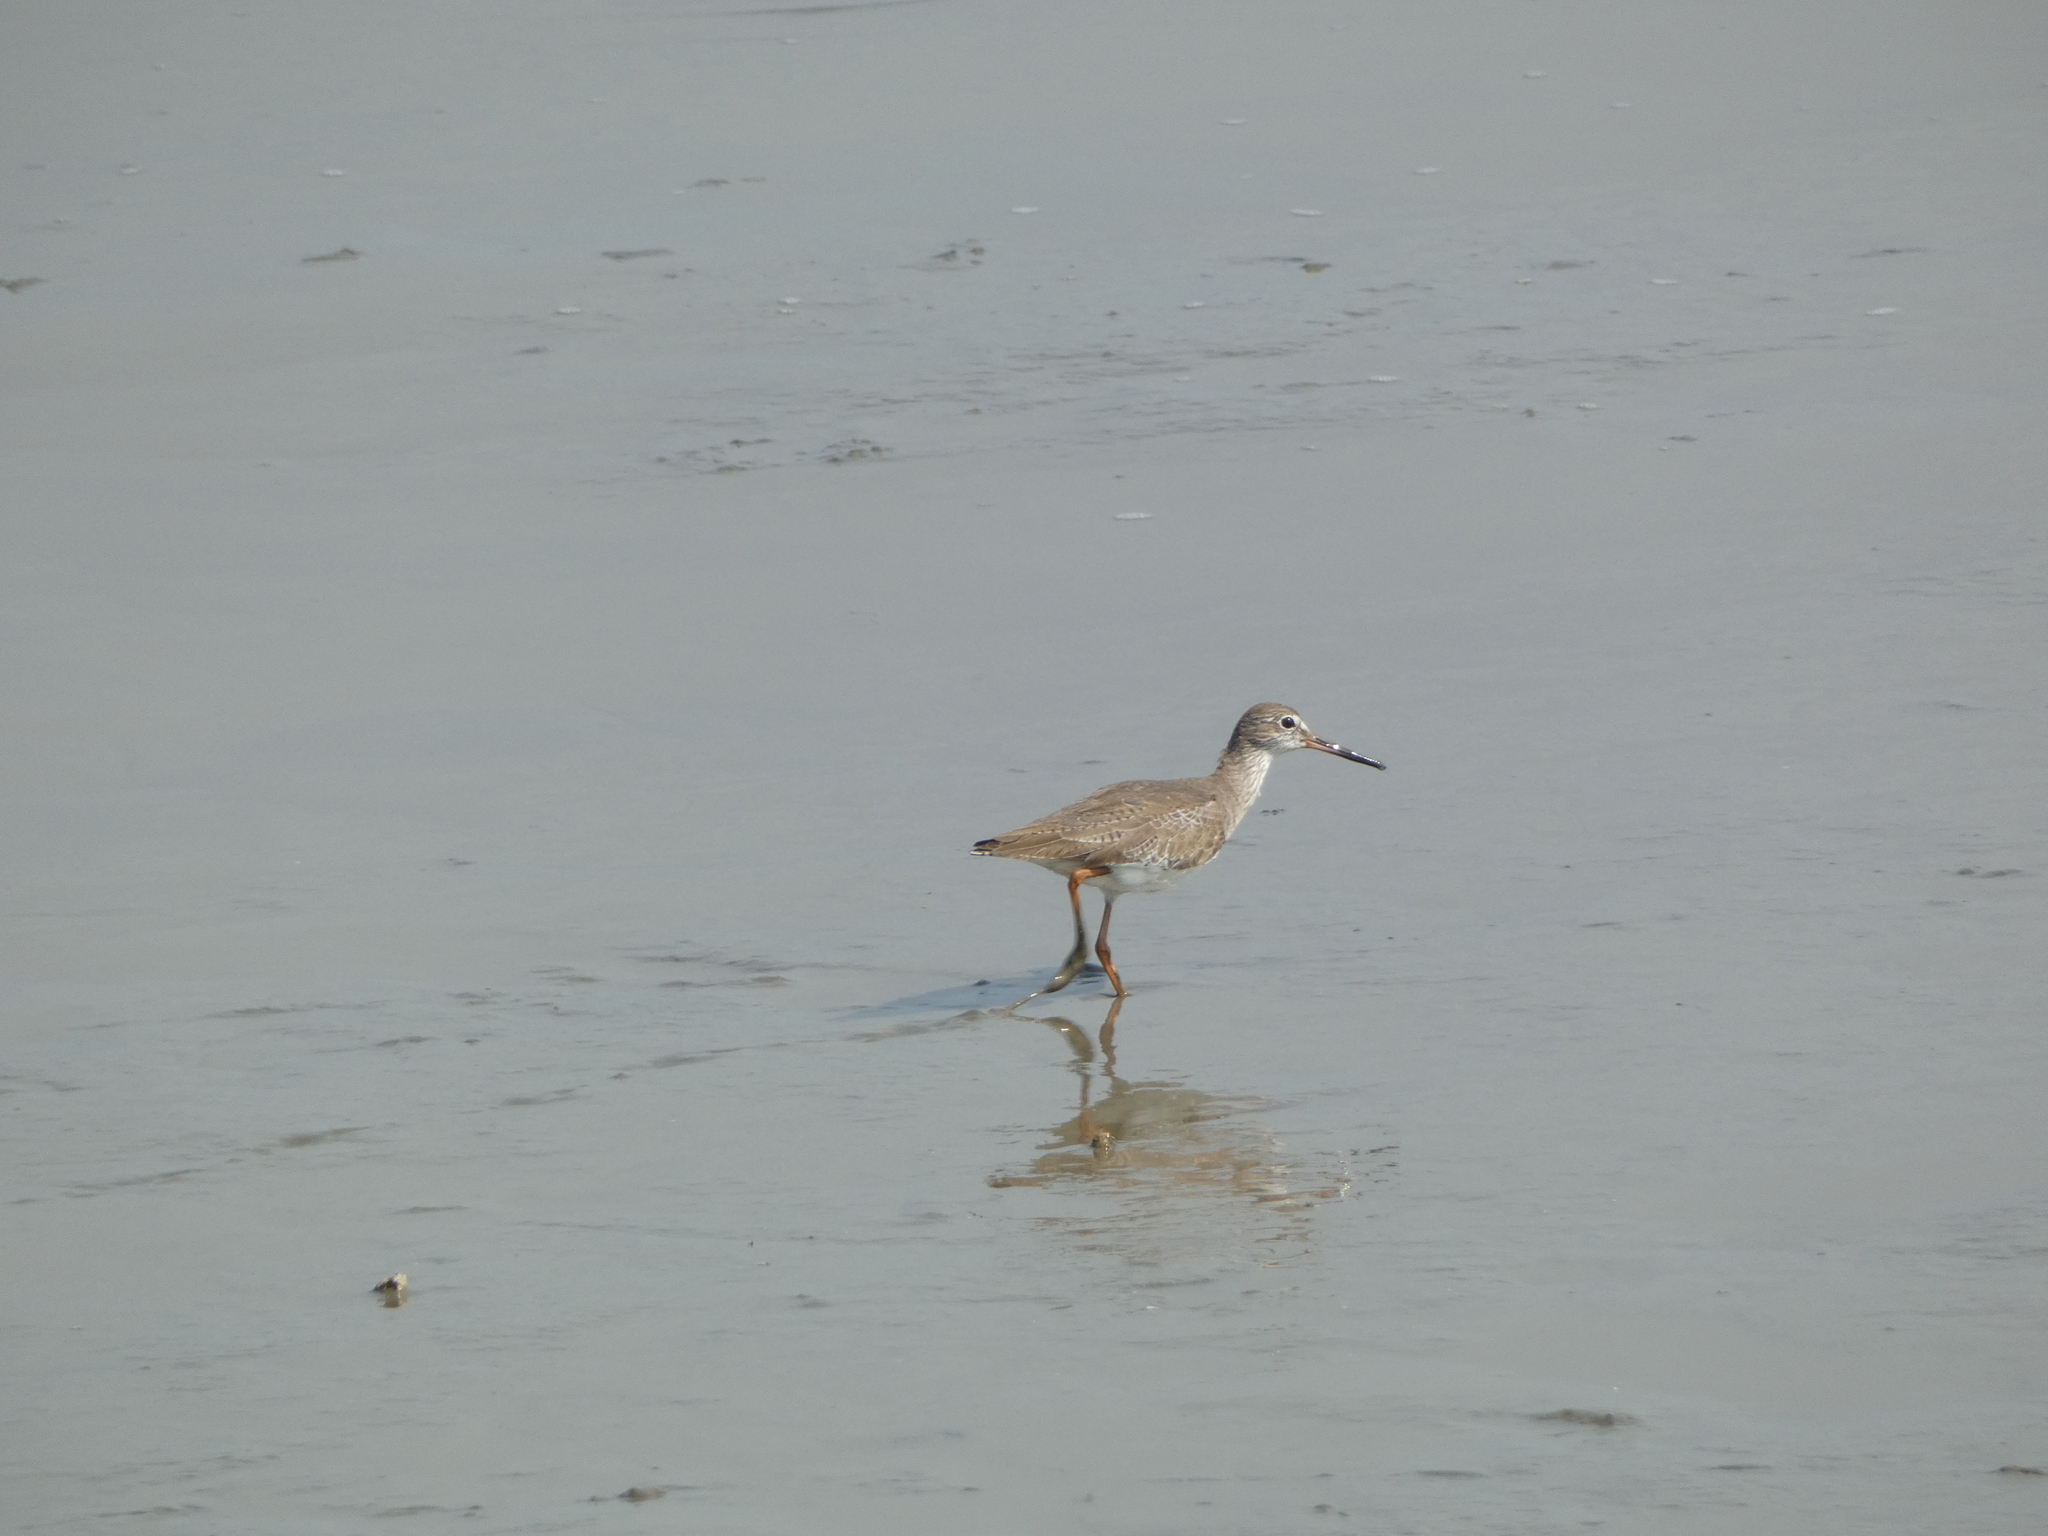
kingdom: Animalia
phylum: Chordata
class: Aves
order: Charadriiformes
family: Scolopacidae
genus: Tringa
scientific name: Tringa totanus
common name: Common redshank
